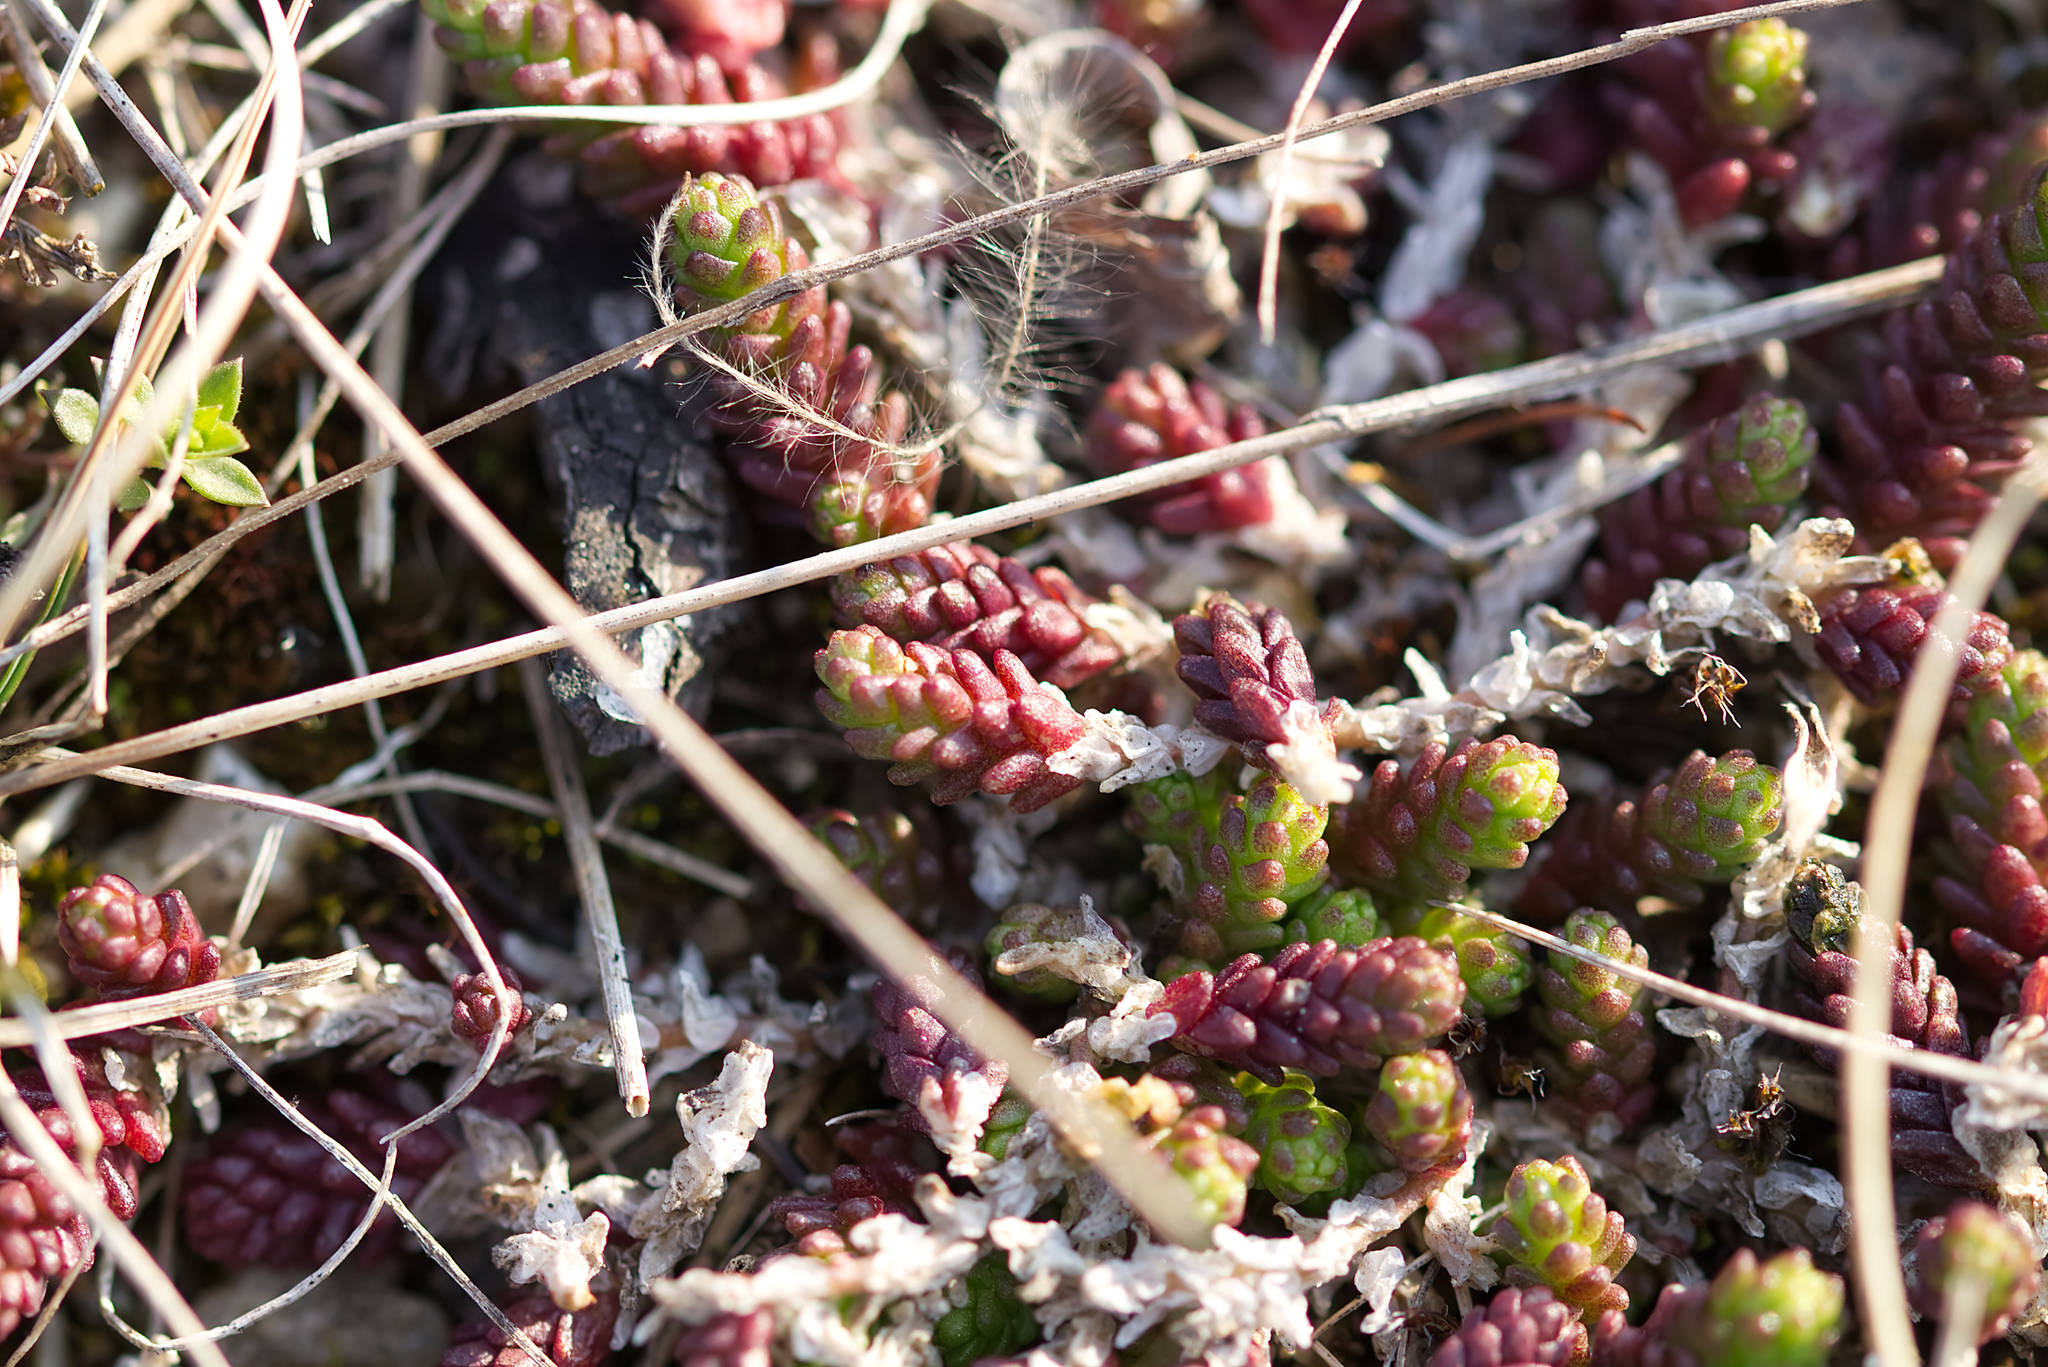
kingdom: Plantae
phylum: Tracheophyta
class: Magnoliopsida
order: Saxifragales
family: Crassulaceae
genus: Sedum
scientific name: Sedum acre
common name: Biting stonecrop
